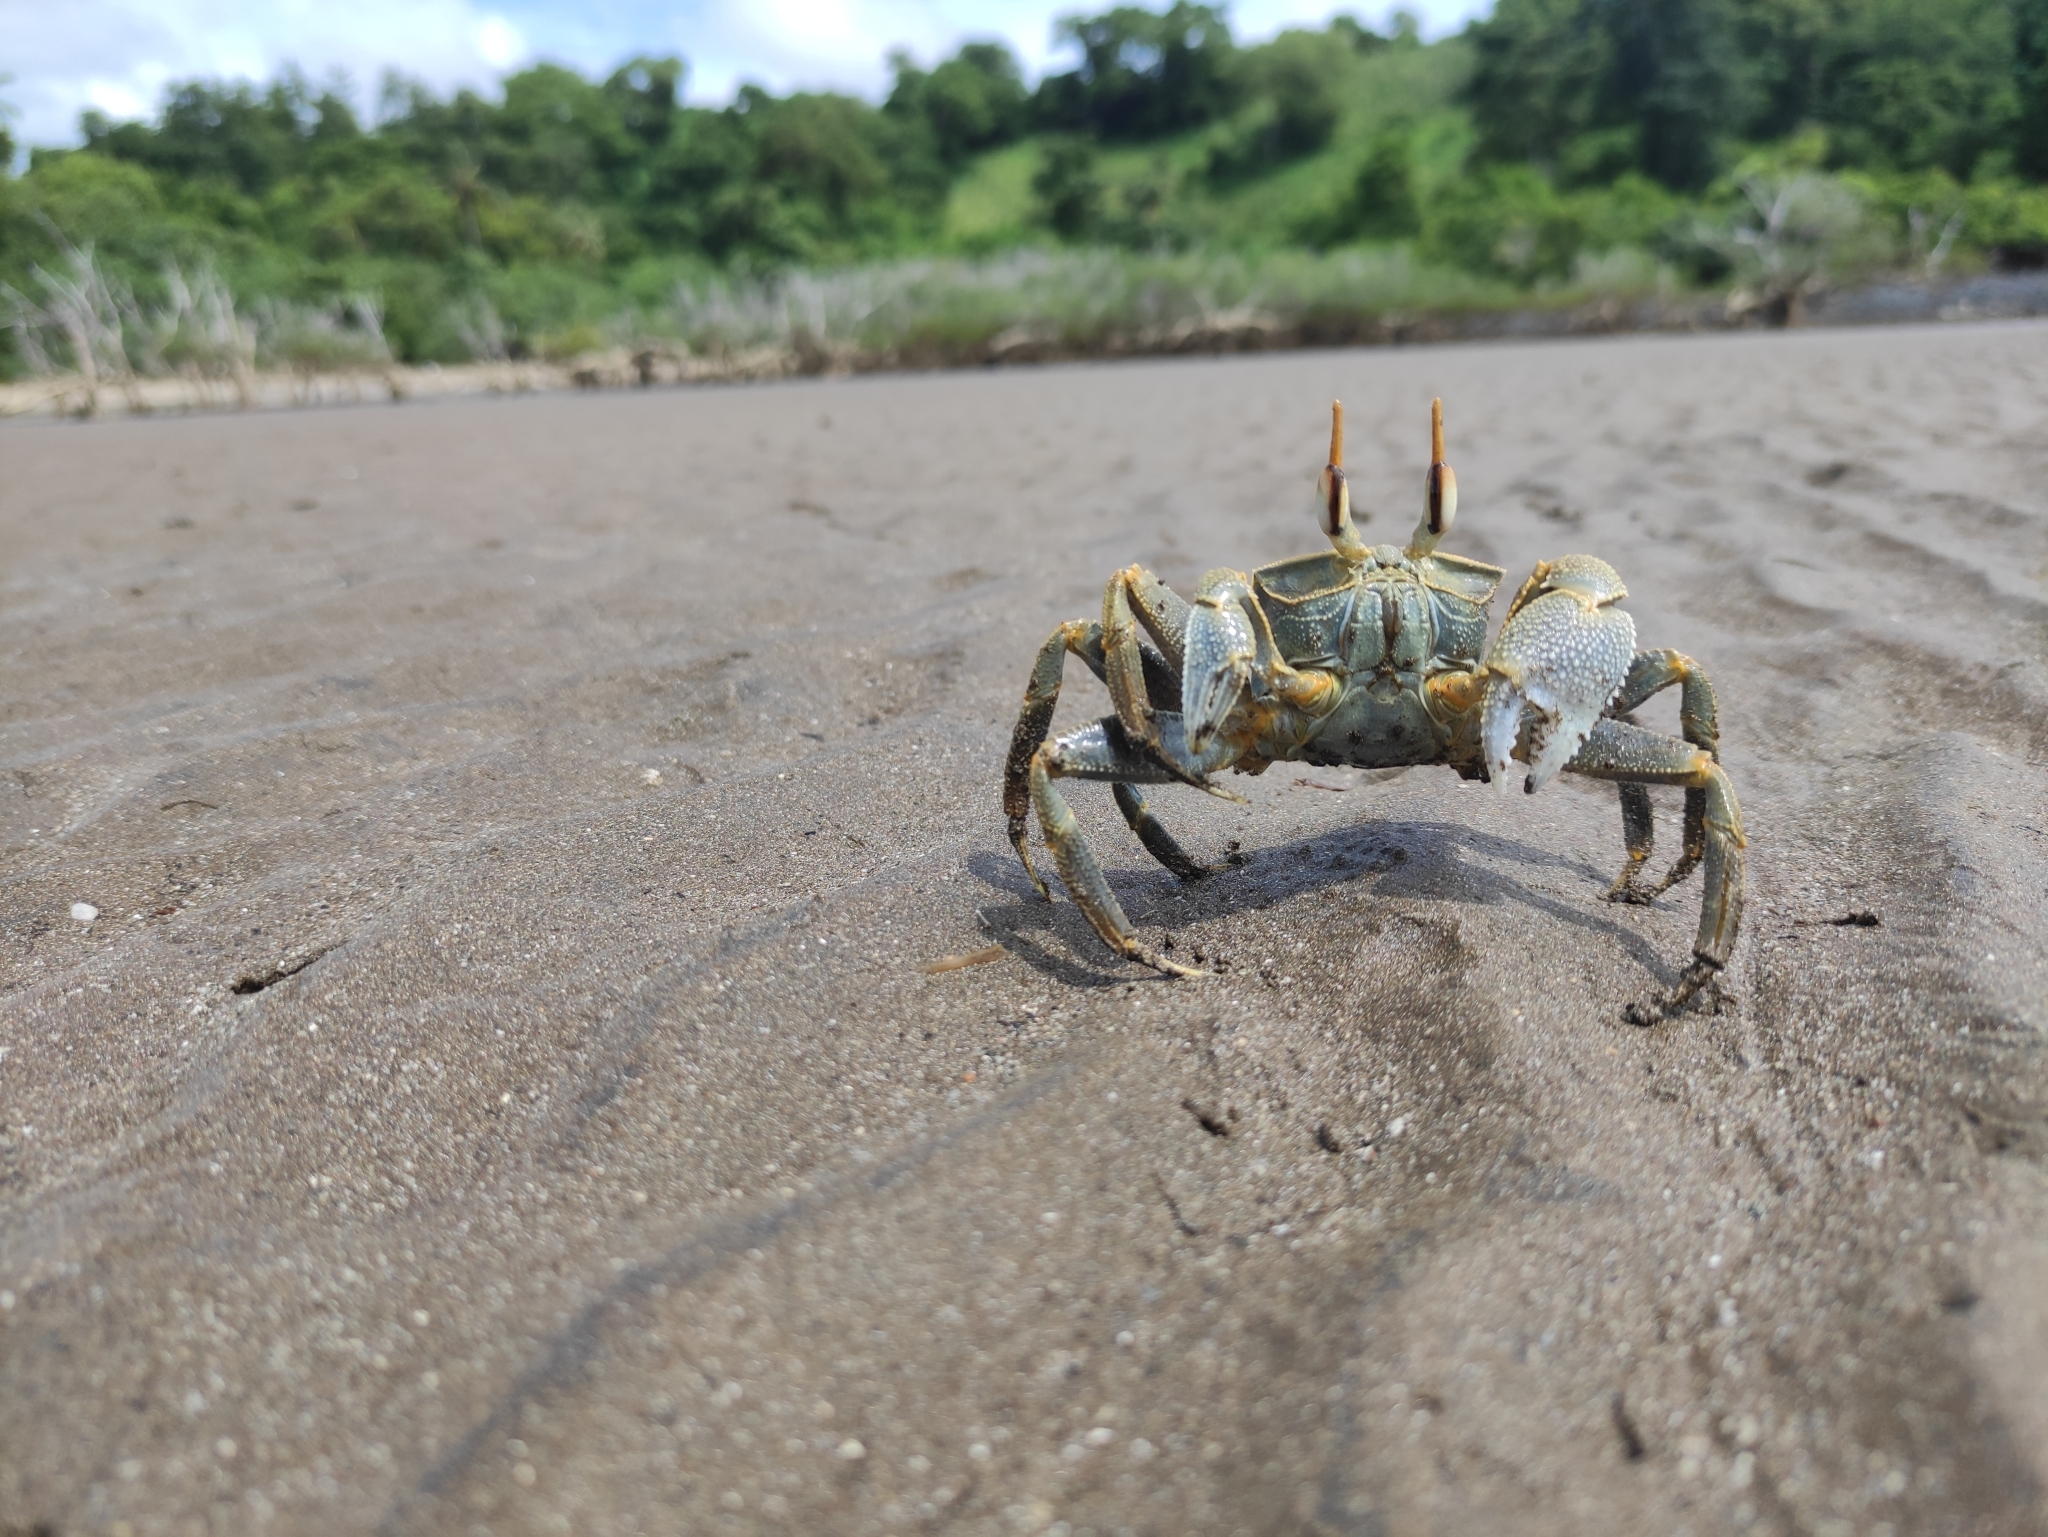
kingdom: Animalia
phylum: Arthropoda
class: Malacostraca
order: Decapoda
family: Ocypodidae
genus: Ocypode
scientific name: Ocypode ceratophthalmus
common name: Indo-pacific ghost crab
